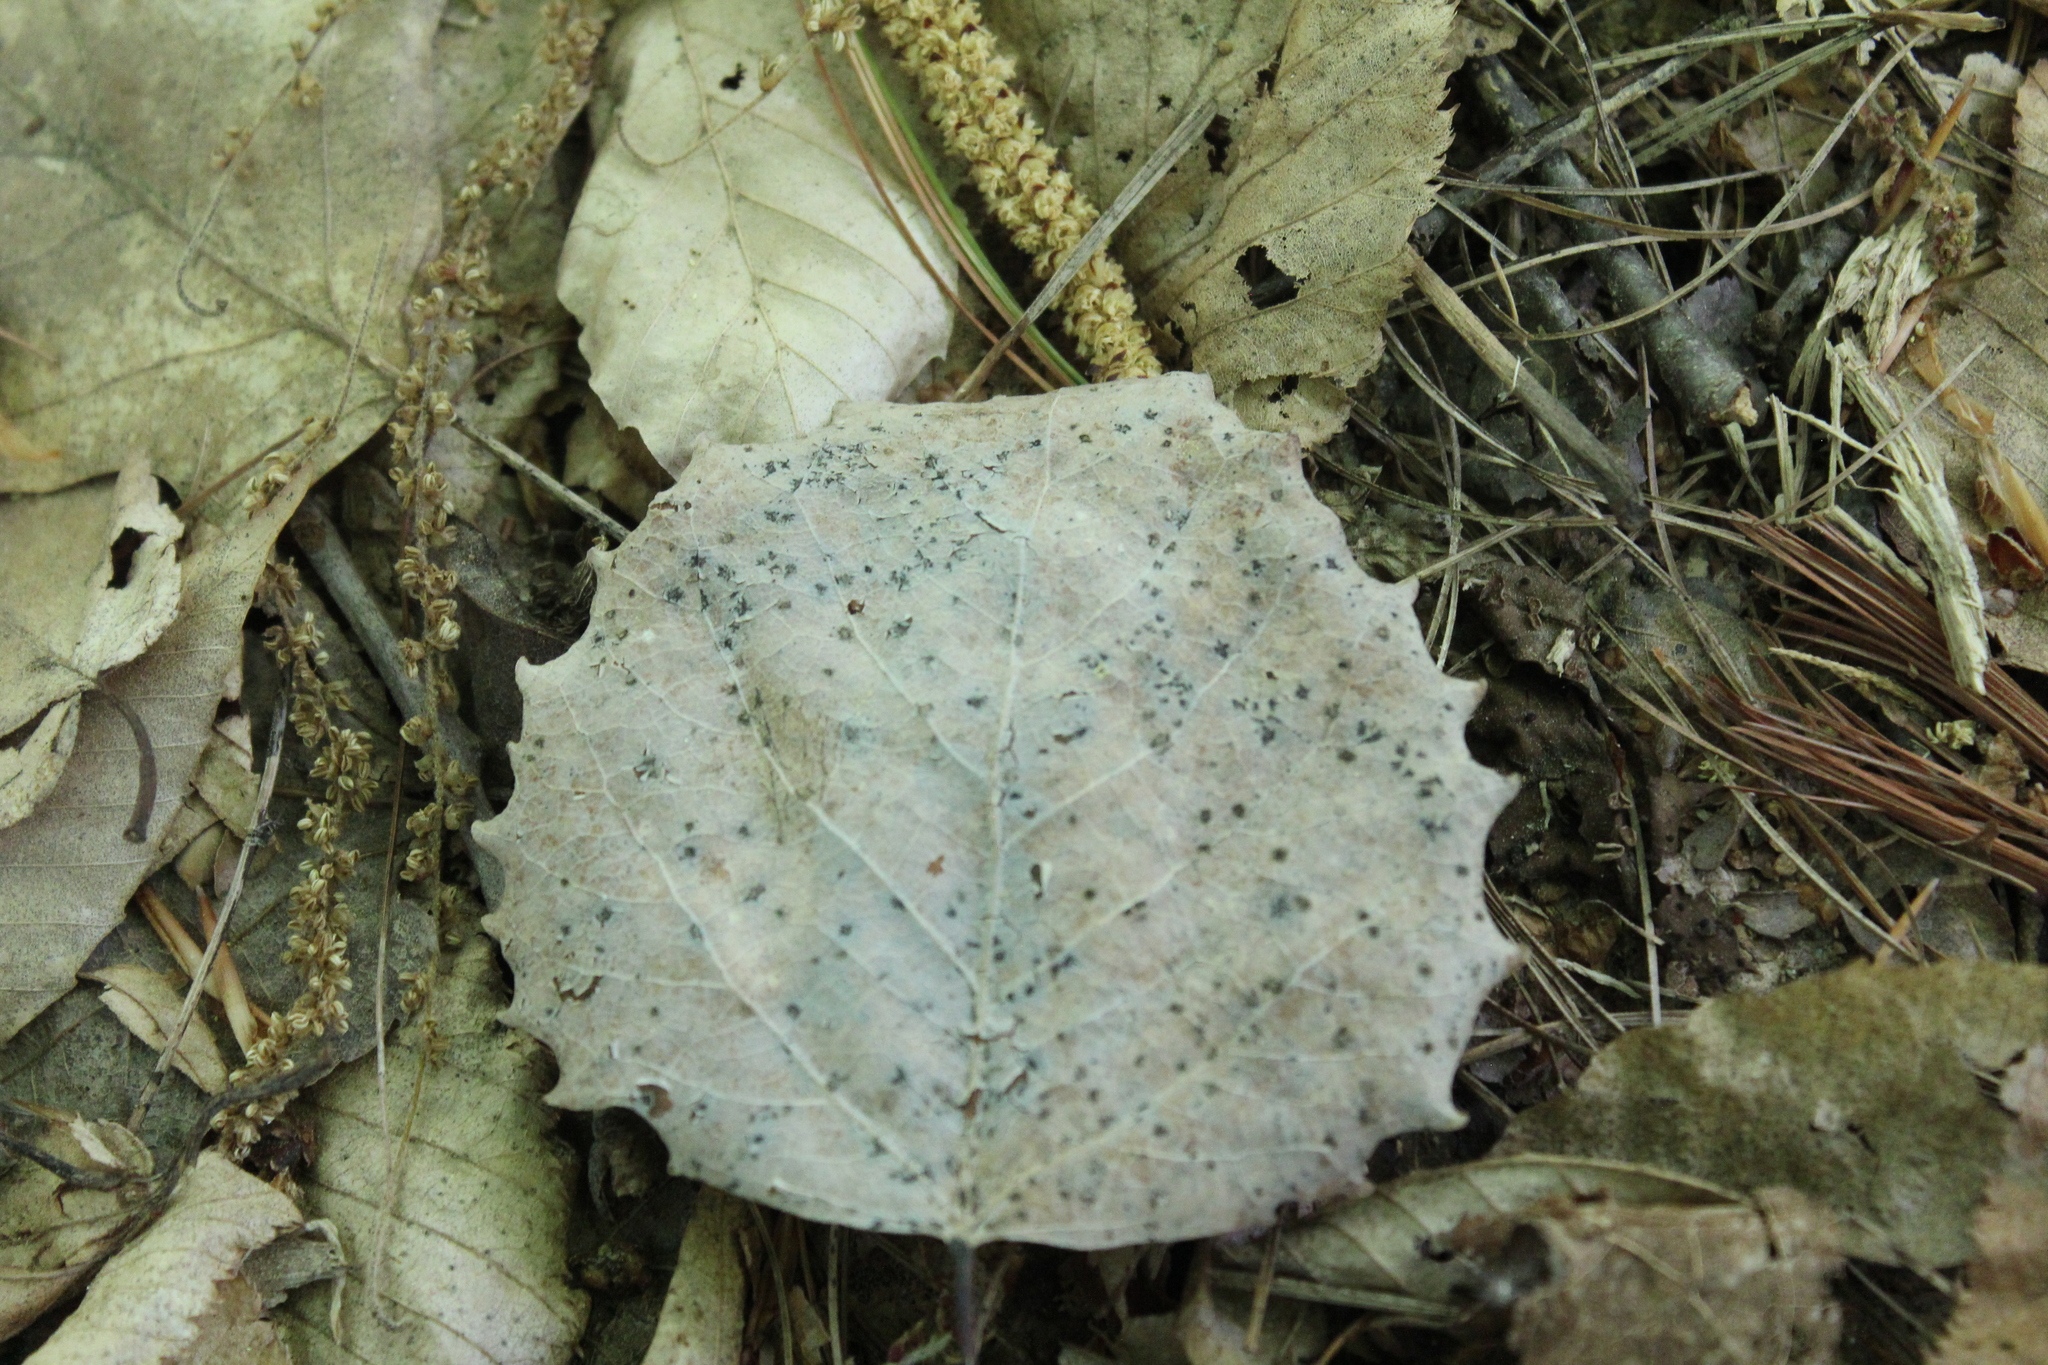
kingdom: Plantae
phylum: Tracheophyta
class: Magnoliopsida
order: Malpighiales
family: Salicaceae
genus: Populus
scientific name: Populus grandidentata
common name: Bigtooth aspen
